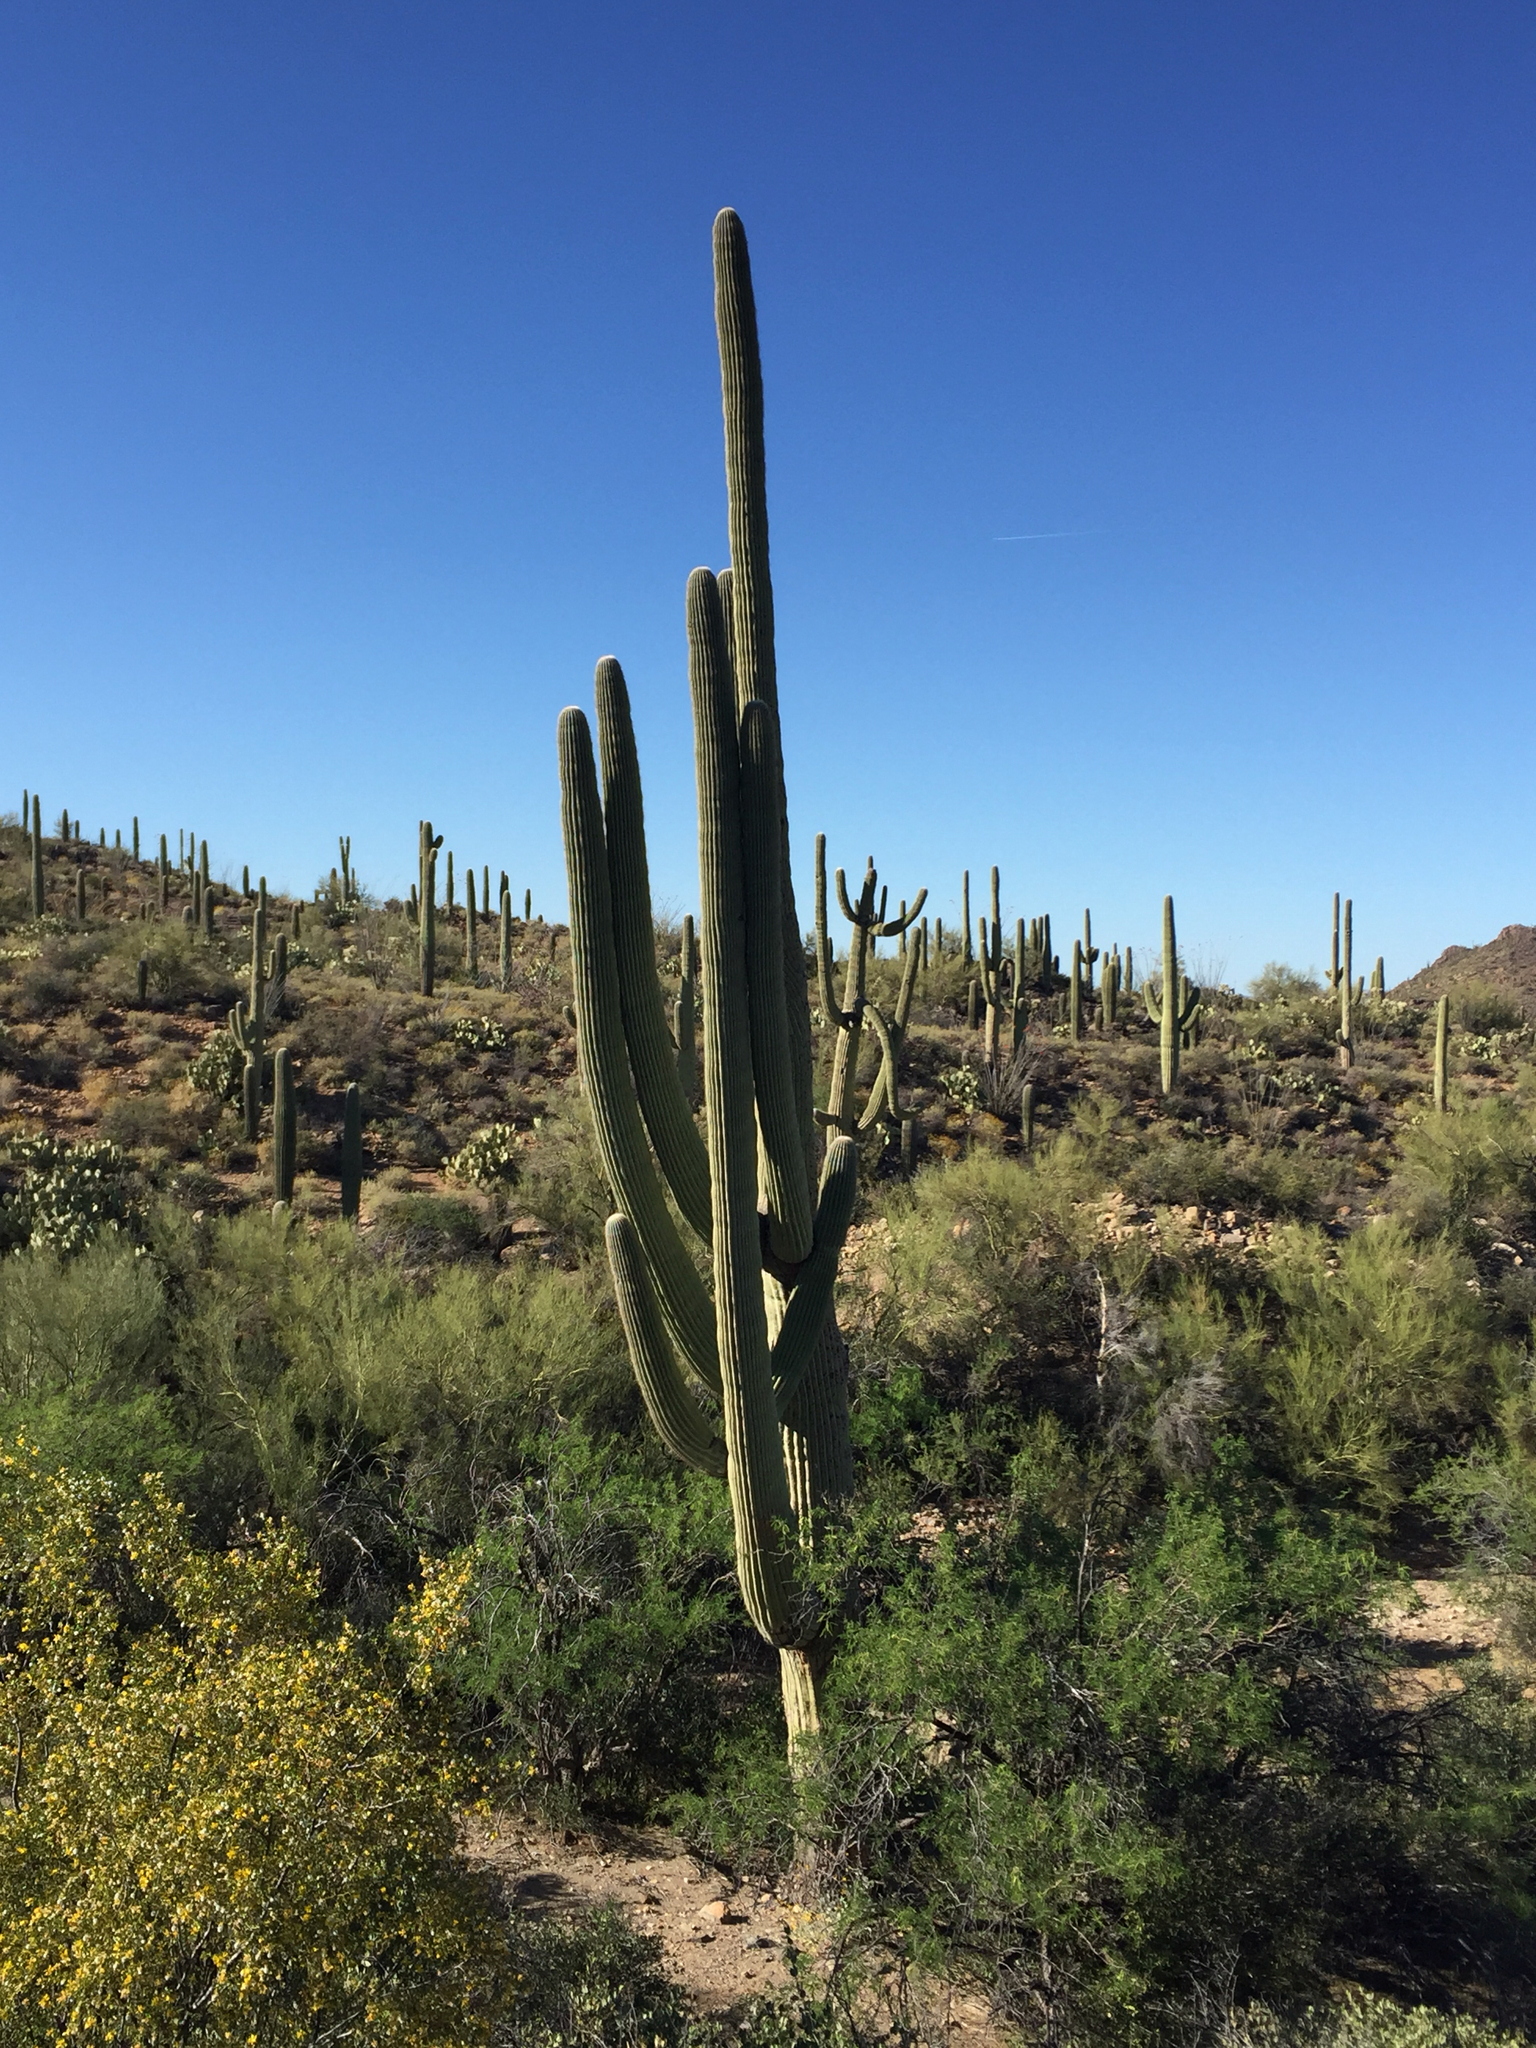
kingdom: Plantae
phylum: Tracheophyta
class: Magnoliopsida
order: Caryophyllales
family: Cactaceae
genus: Carnegiea
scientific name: Carnegiea gigantea
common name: Saguaro
